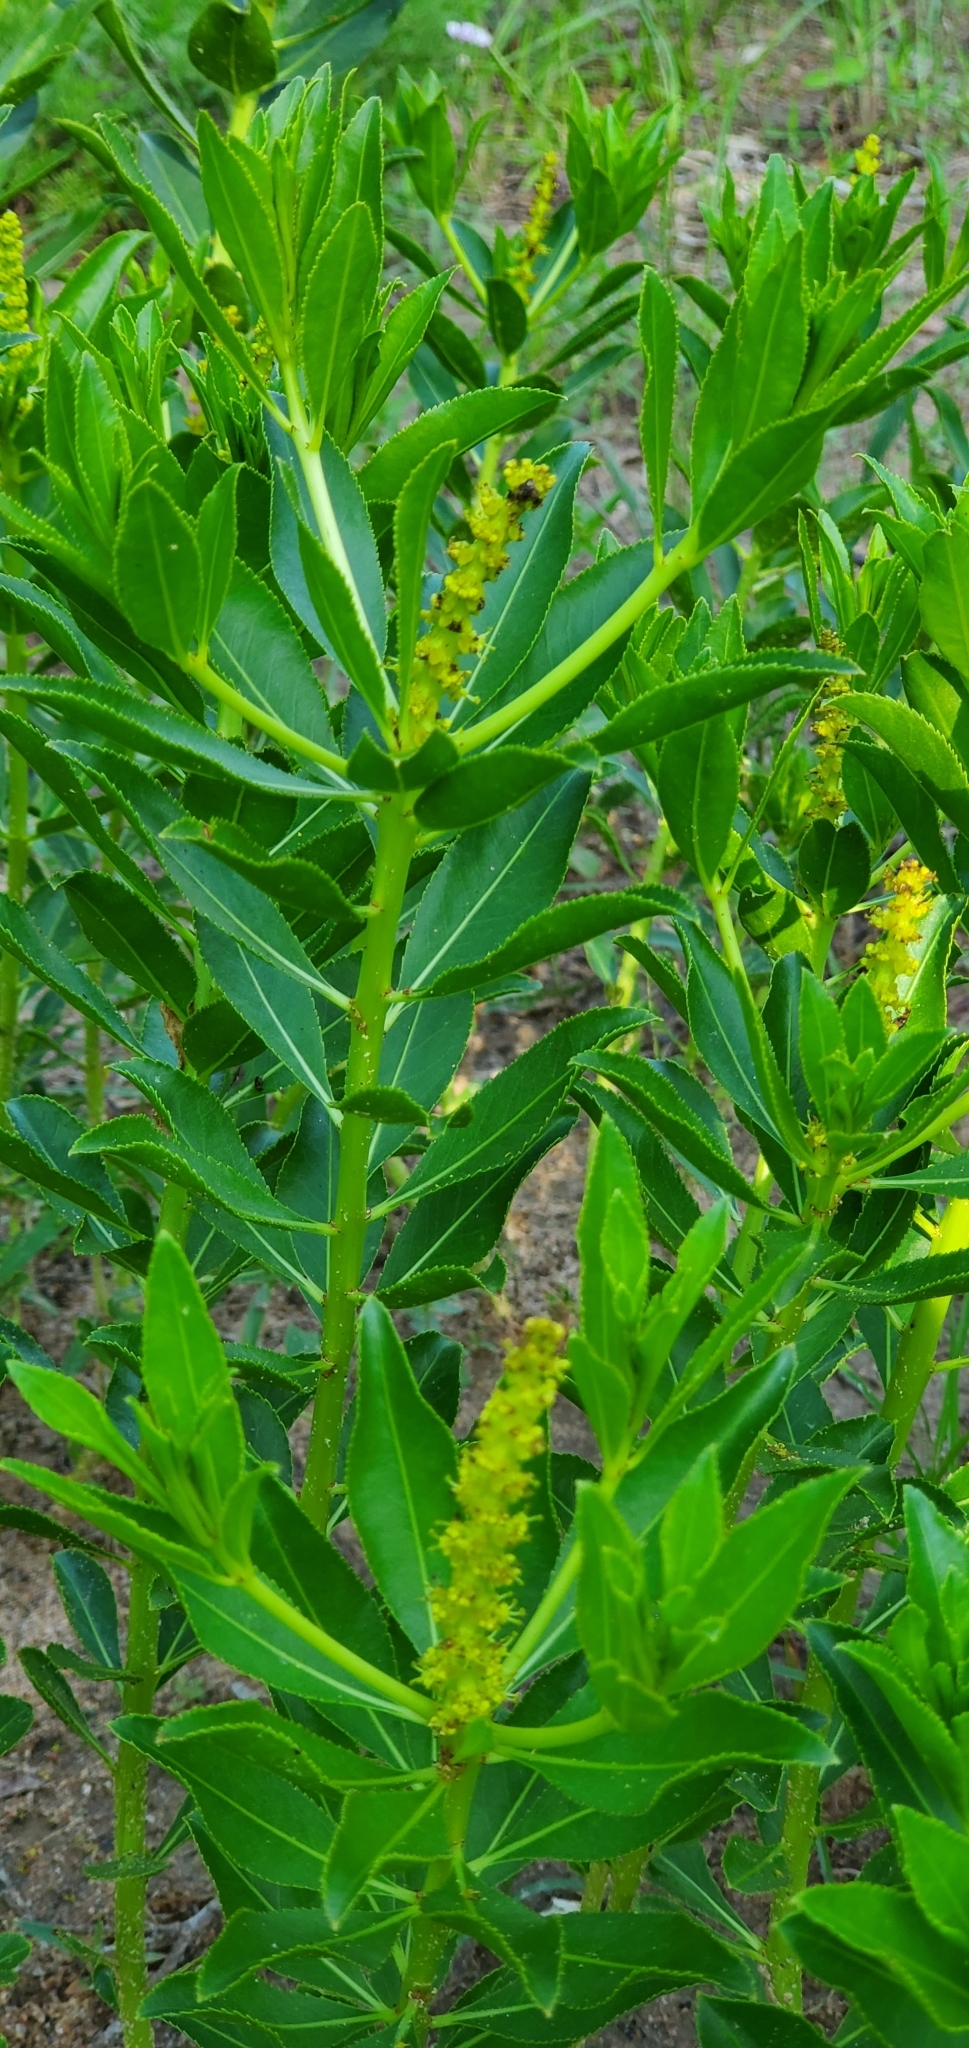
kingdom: Plantae
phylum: Tracheophyta
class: Magnoliopsida
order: Malpighiales
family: Euphorbiaceae
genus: Stillingia
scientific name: Stillingia sylvatica
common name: Queen's-delight
